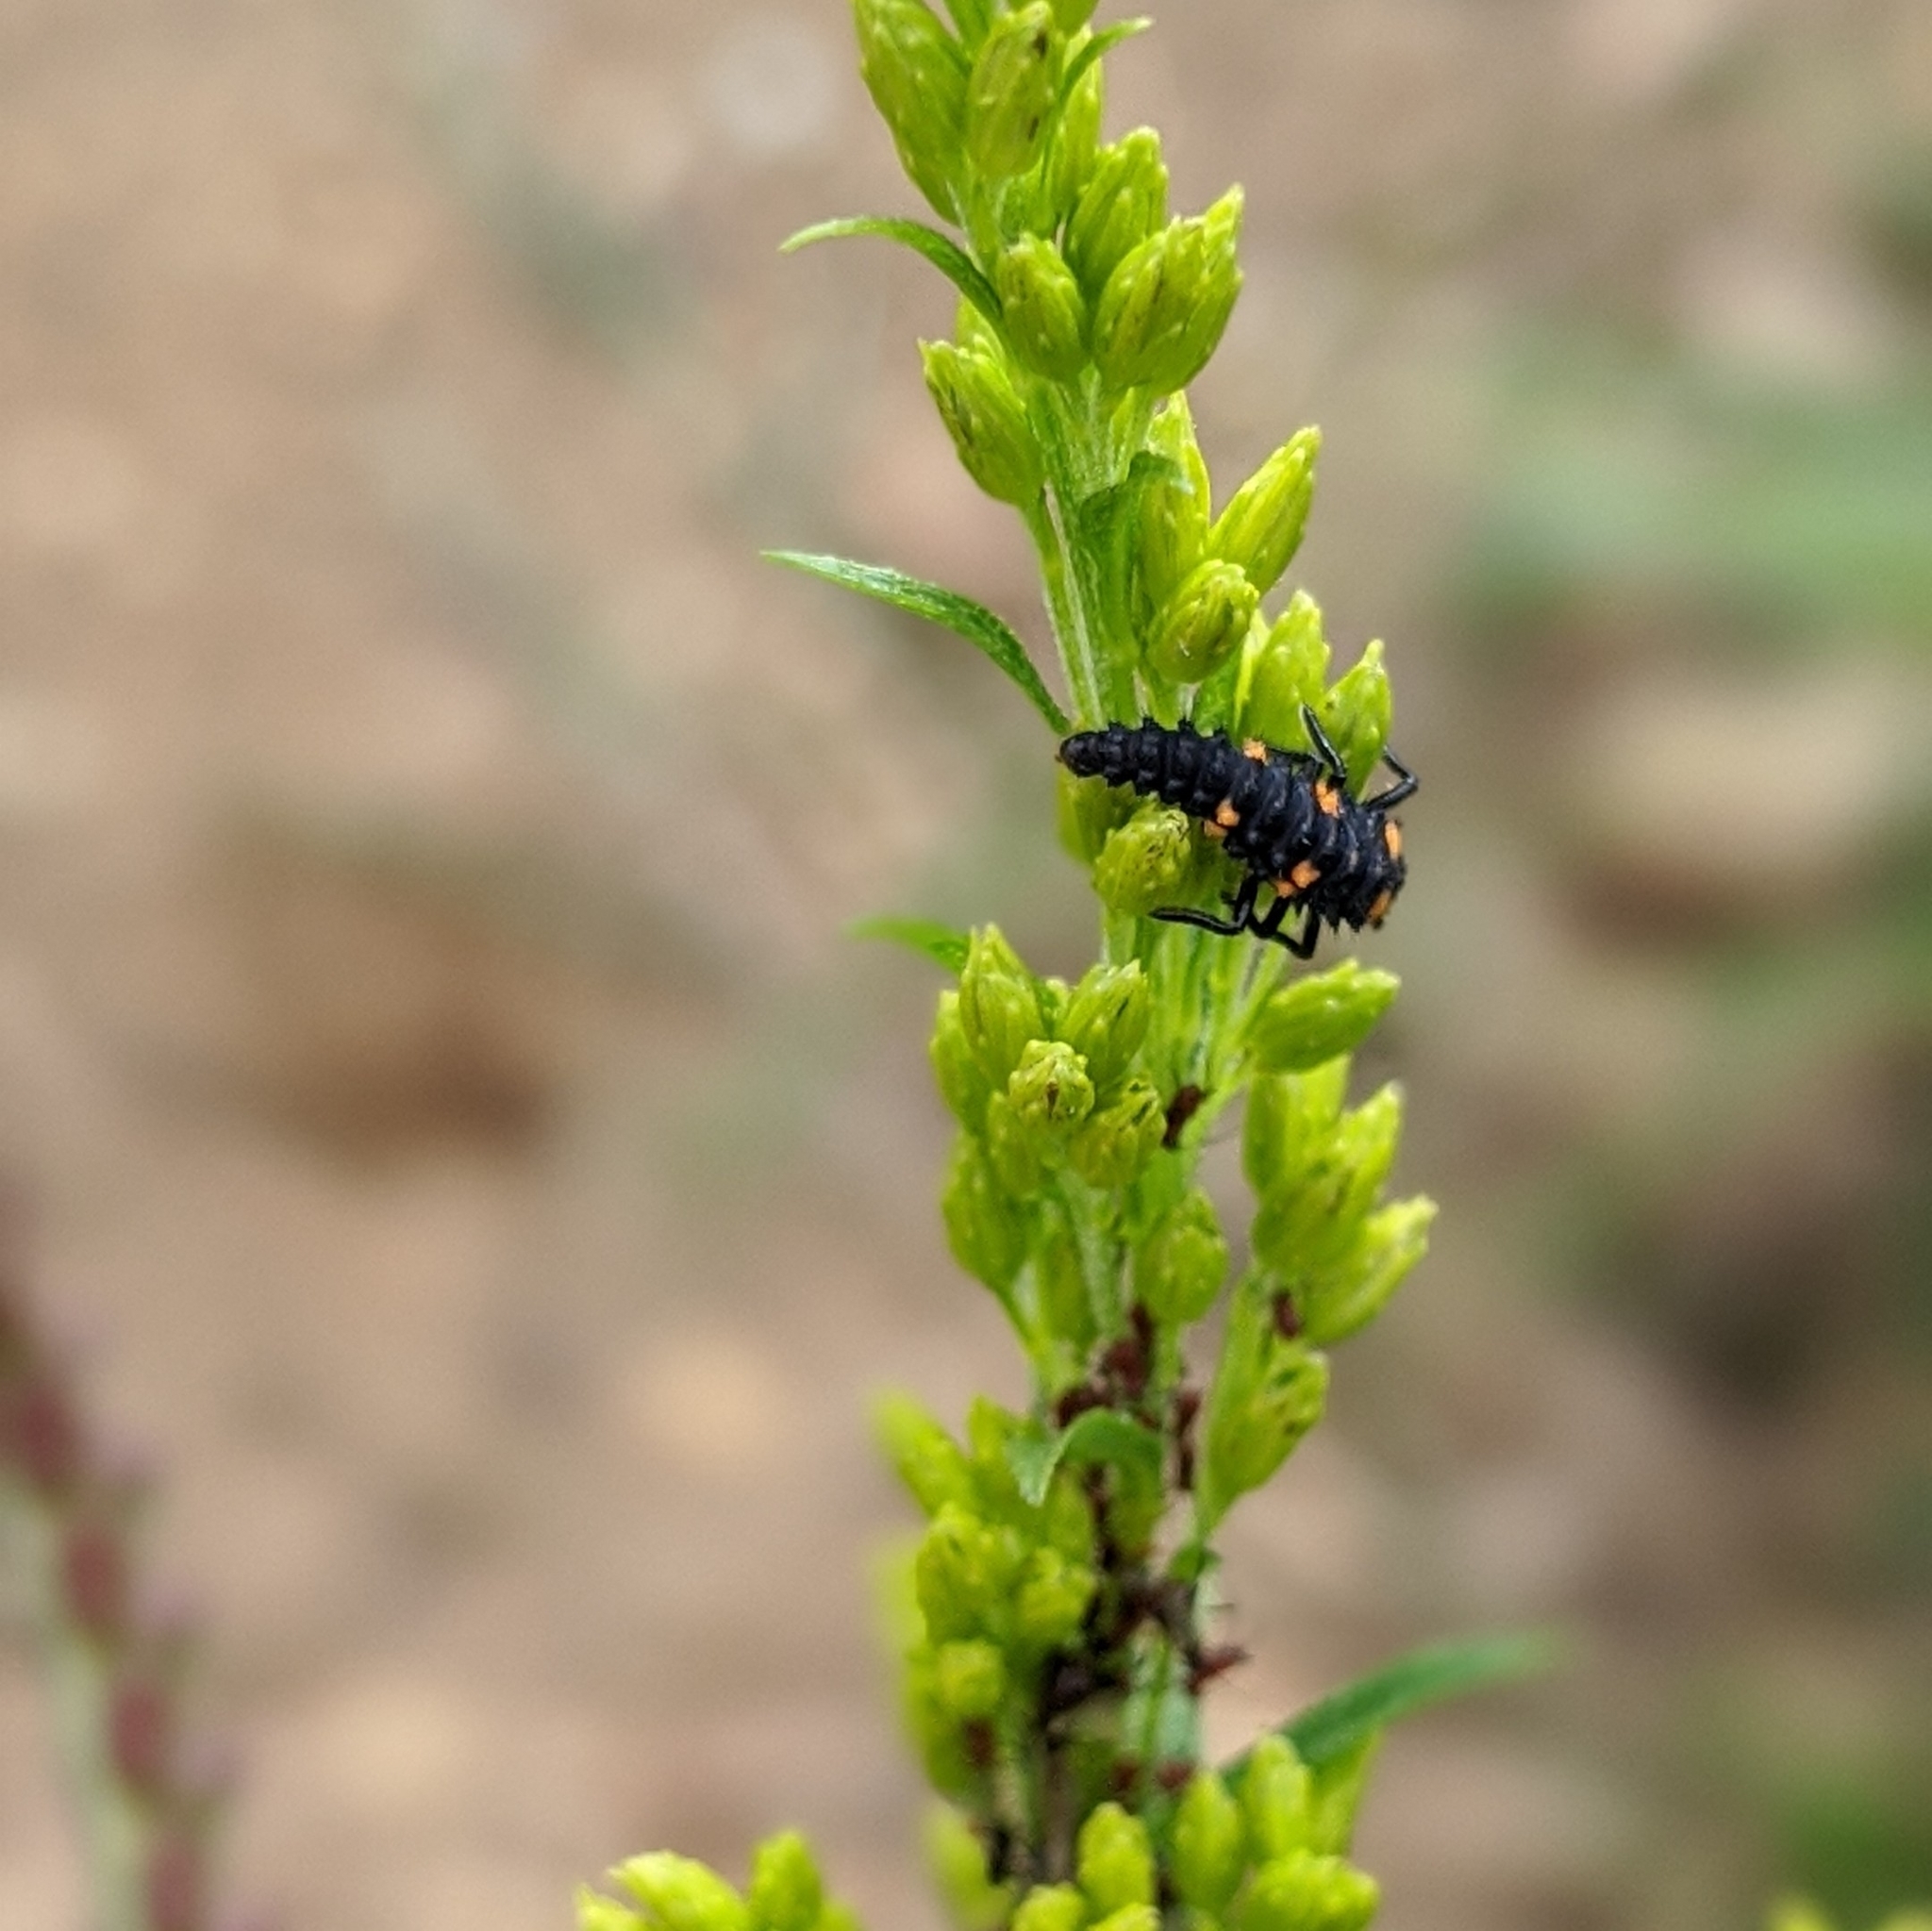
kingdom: Animalia
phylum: Arthropoda
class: Insecta
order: Coleoptera
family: Coccinellidae
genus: Coccinella
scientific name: Coccinella septempunctata
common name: Sevenspotted lady beetle
